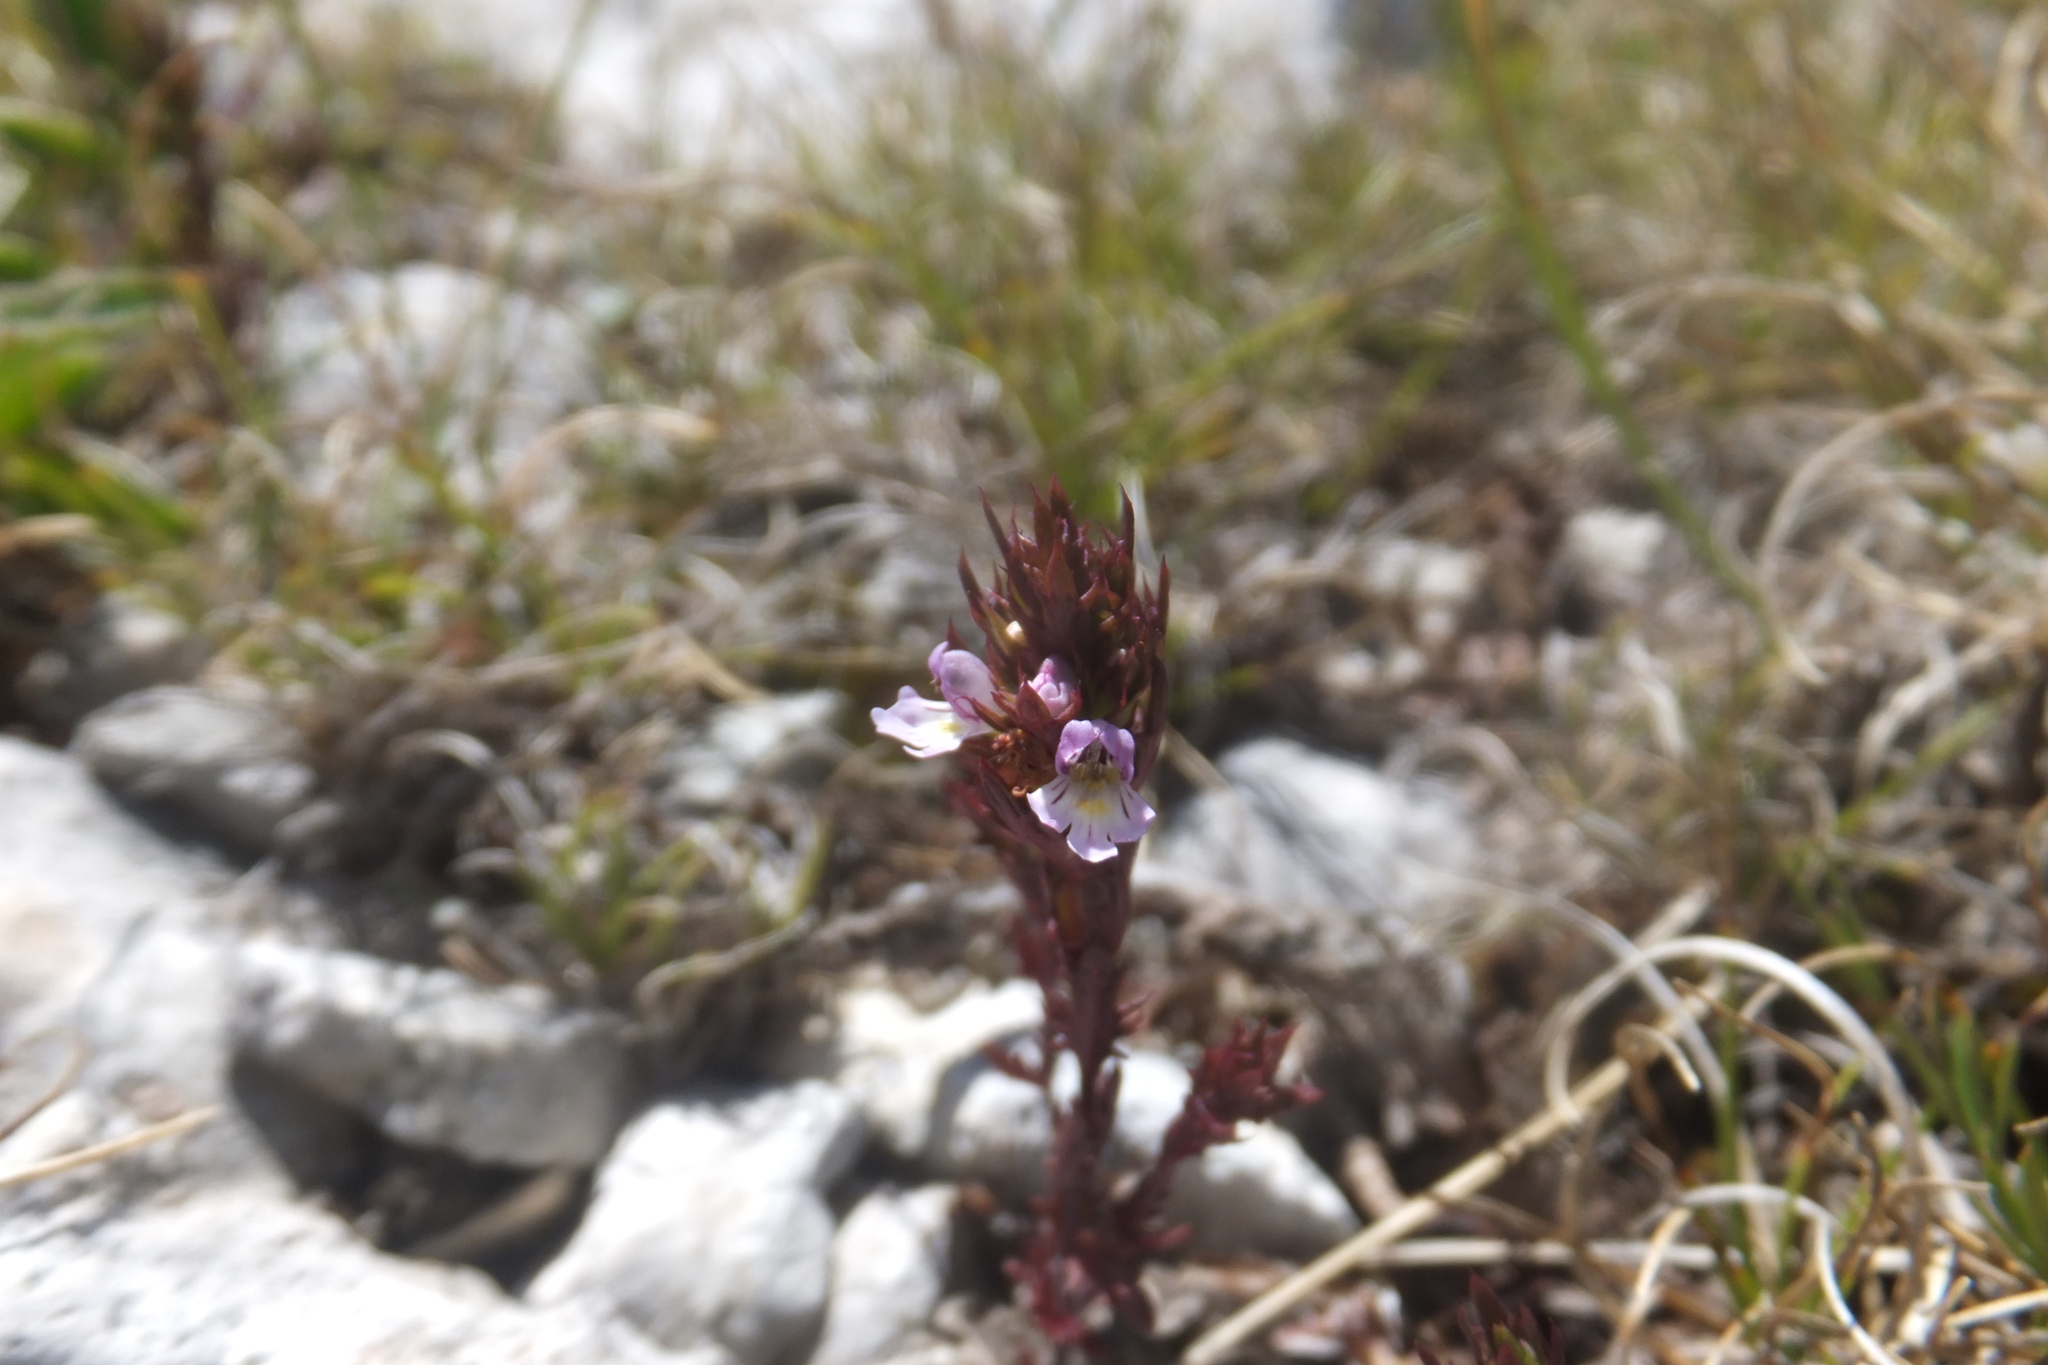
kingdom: Plantae
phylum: Tracheophyta
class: Magnoliopsida
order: Lamiales
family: Orobanchaceae
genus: Euphrasia
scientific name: Euphrasia salisburgensis
